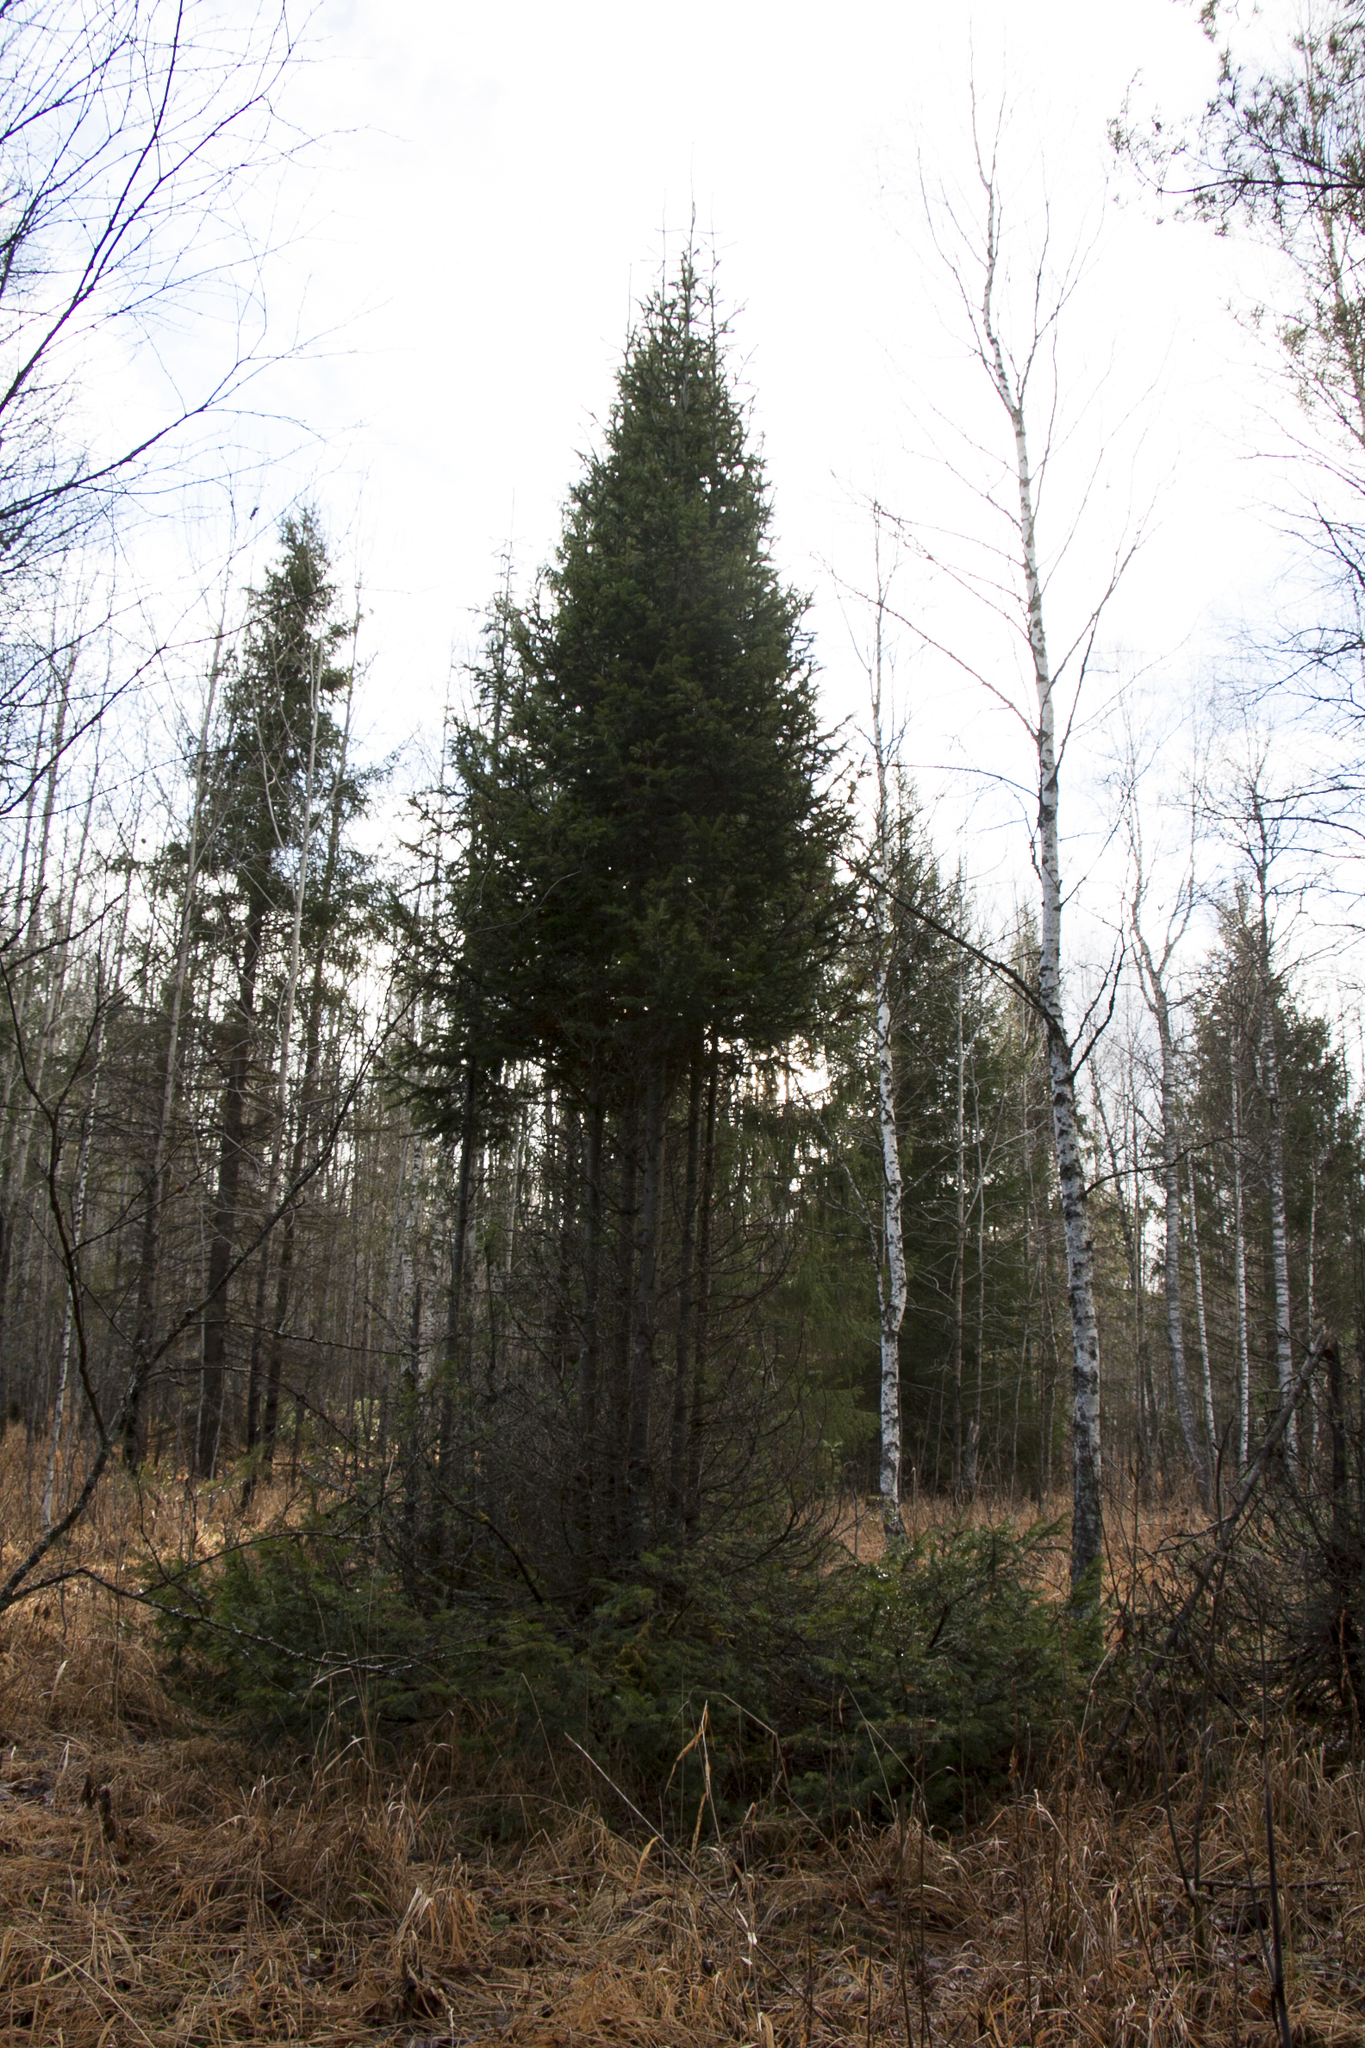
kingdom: Plantae
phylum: Tracheophyta
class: Pinopsida
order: Pinales
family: Pinaceae
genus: Picea
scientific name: Picea obovata
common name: Siberian spruce
